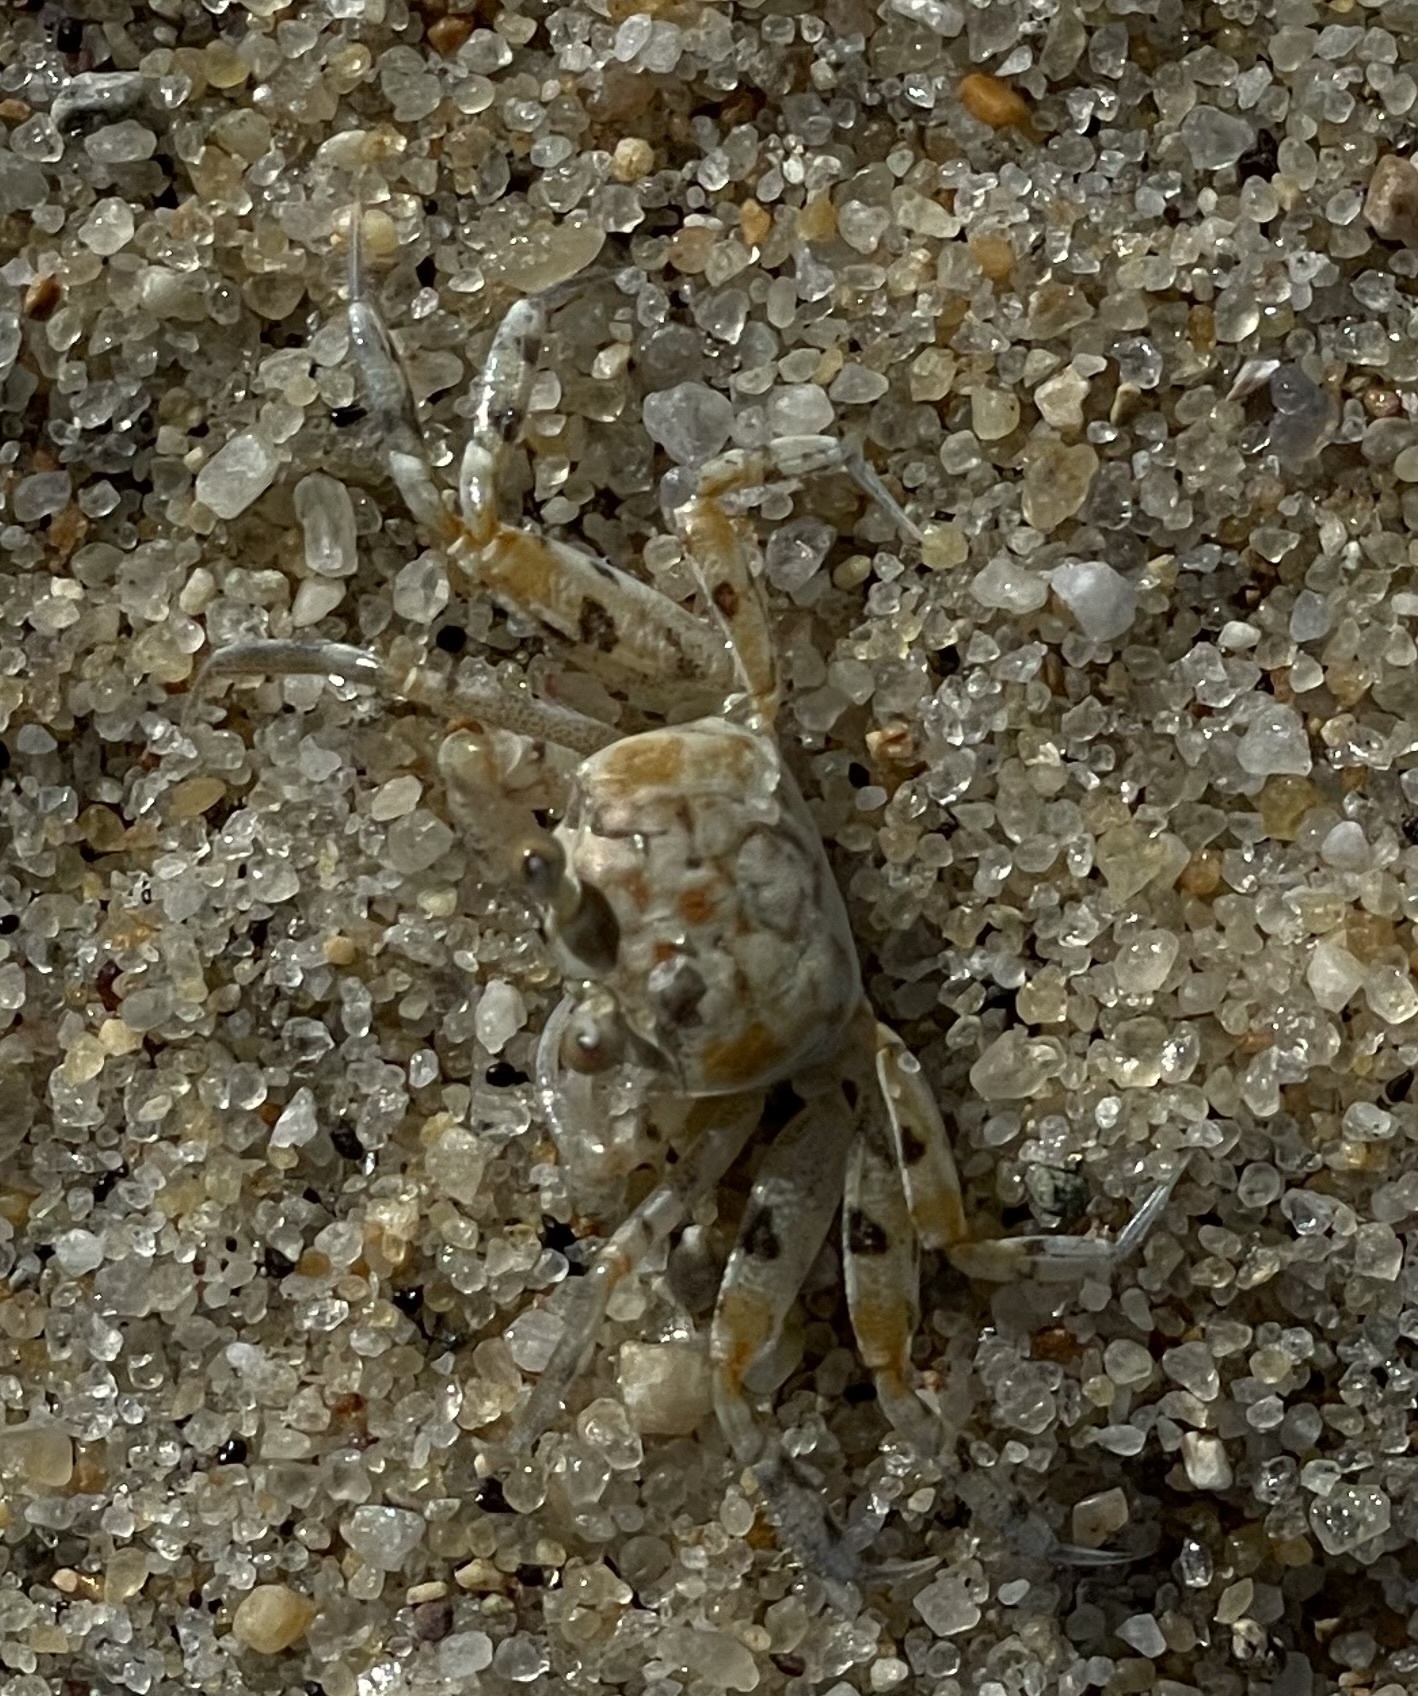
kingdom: Animalia
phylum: Arthropoda
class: Malacostraca
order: Decapoda
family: Ocypodidae
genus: Ocypode
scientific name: Ocypode quadrata
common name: Ghost crab
